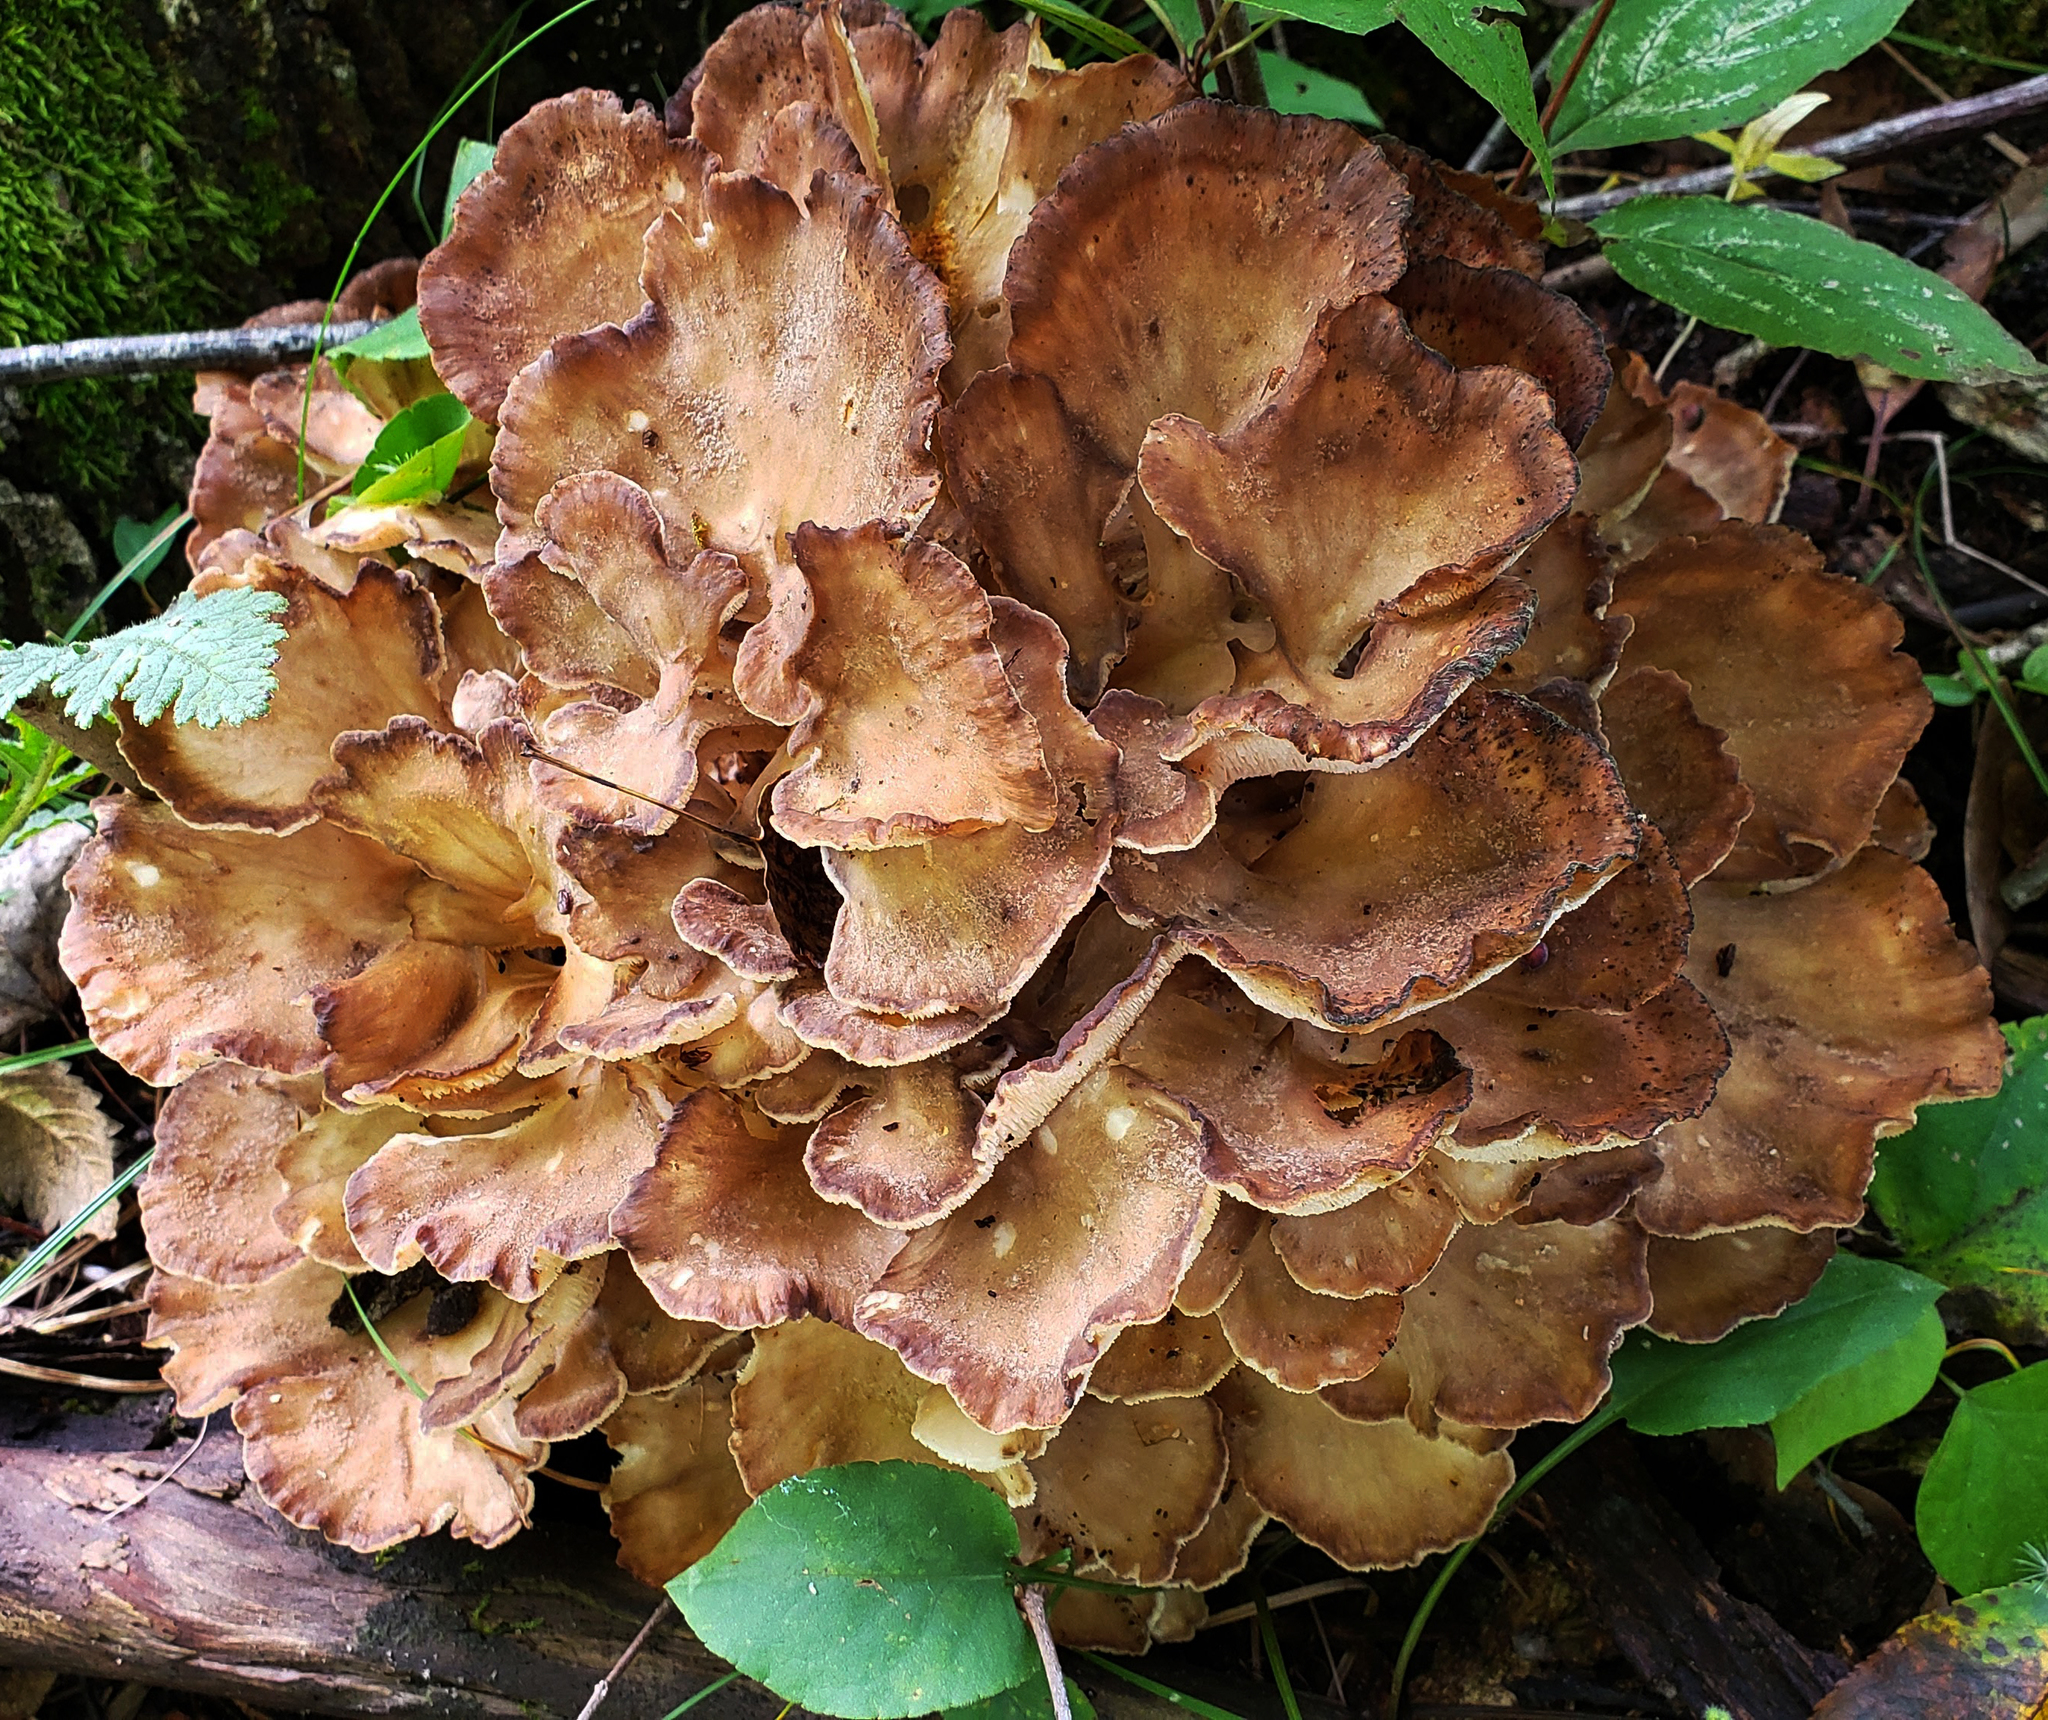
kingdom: Fungi
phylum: Basidiomycota
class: Agaricomycetes
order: Polyporales
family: Grifolaceae
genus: Grifola
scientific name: Grifola frondosa
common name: Hen of the woods
